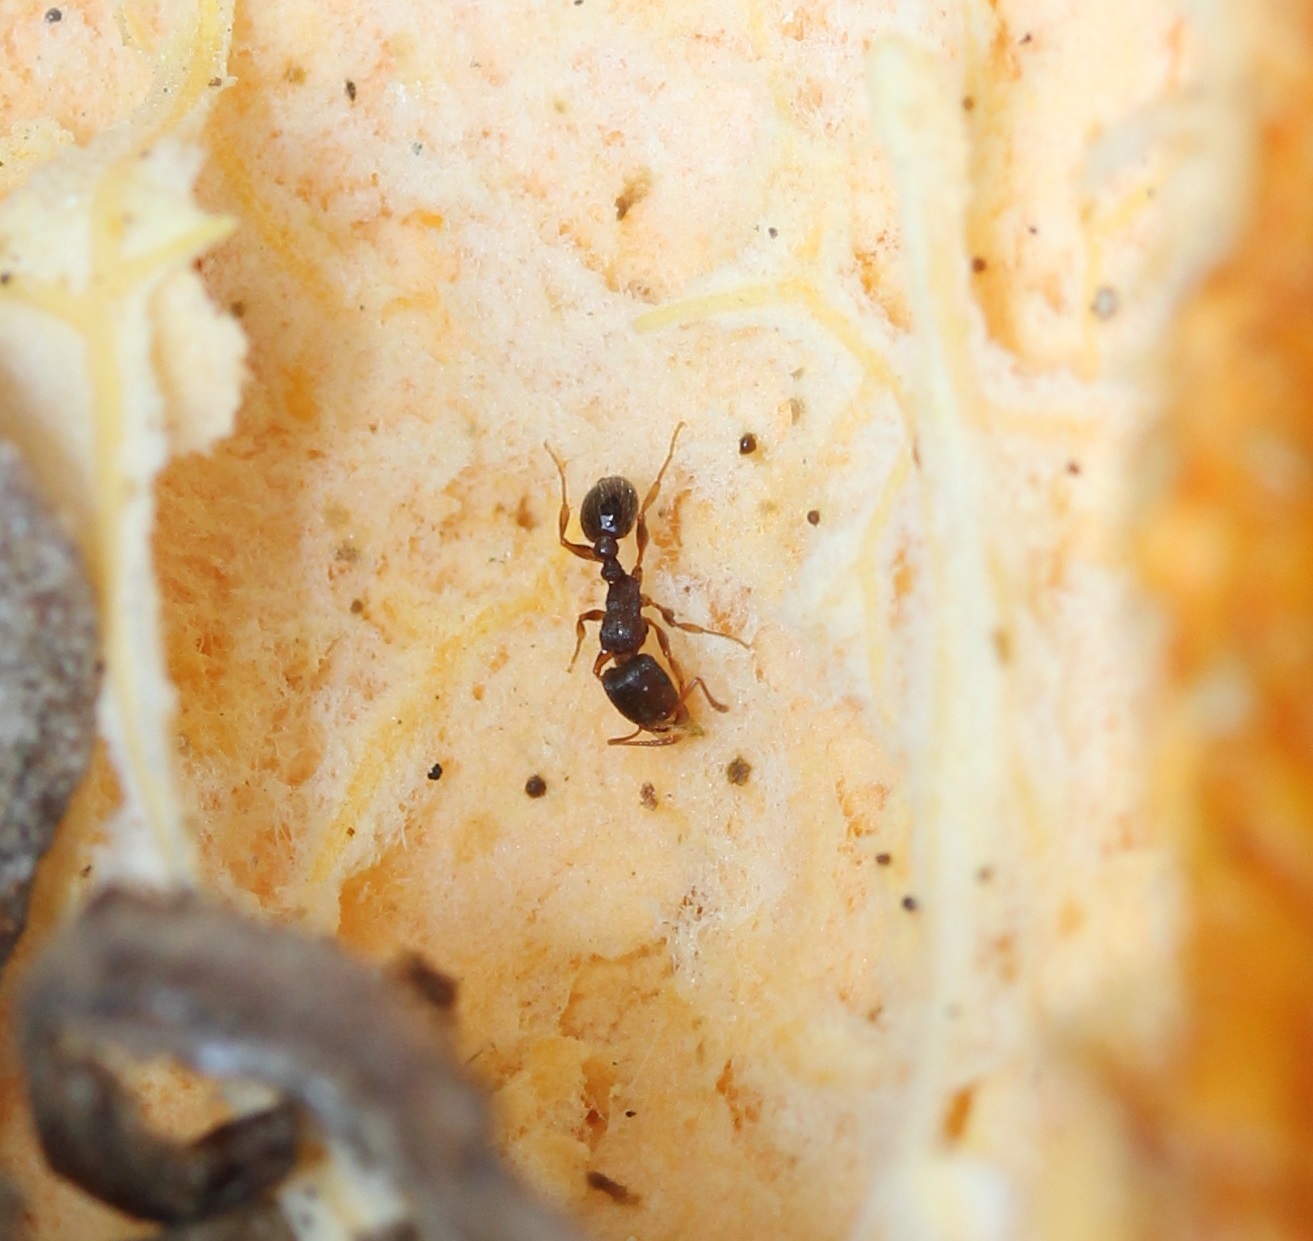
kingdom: Animalia
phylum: Arthropoda
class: Insecta
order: Hymenoptera
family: Formicidae
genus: Tetramorium
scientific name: Tetramorium immigrans
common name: Pavement ant
